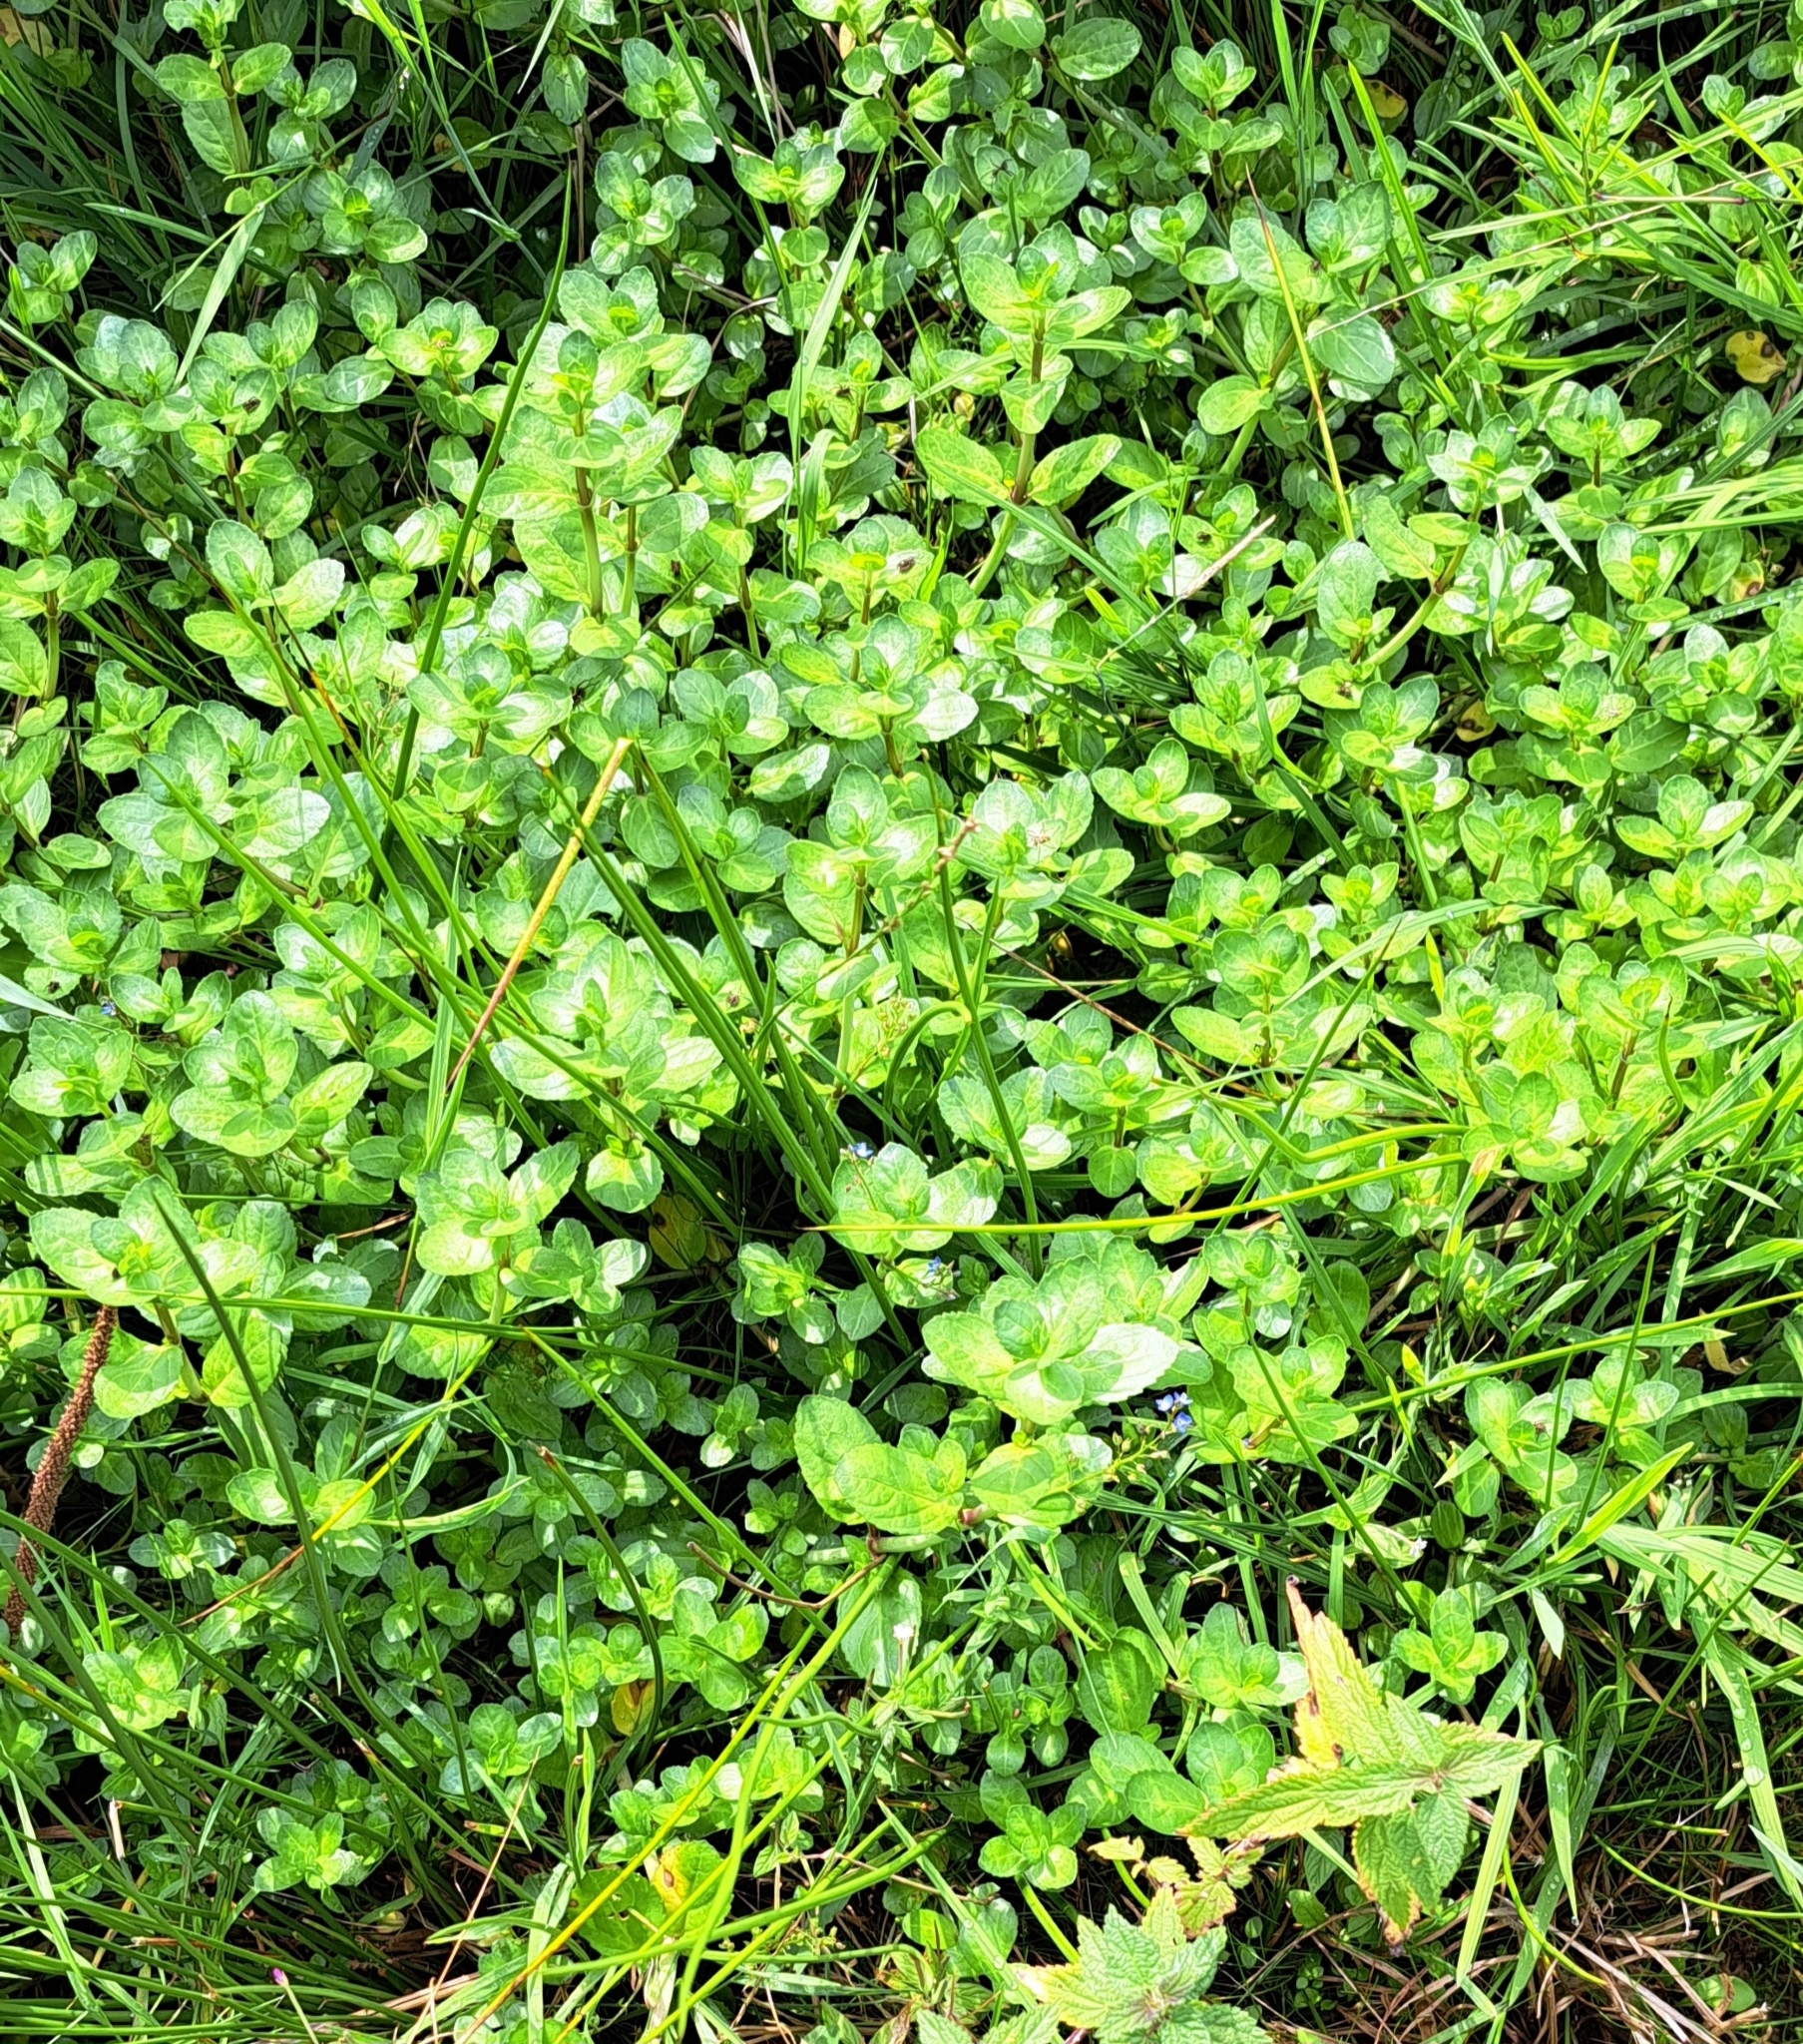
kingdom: Plantae
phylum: Tracheophyta
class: Magnoliopsida
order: Lamiales
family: Plantaginaceae
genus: Veronica
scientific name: Veronica beccabunga
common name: Brooklime
